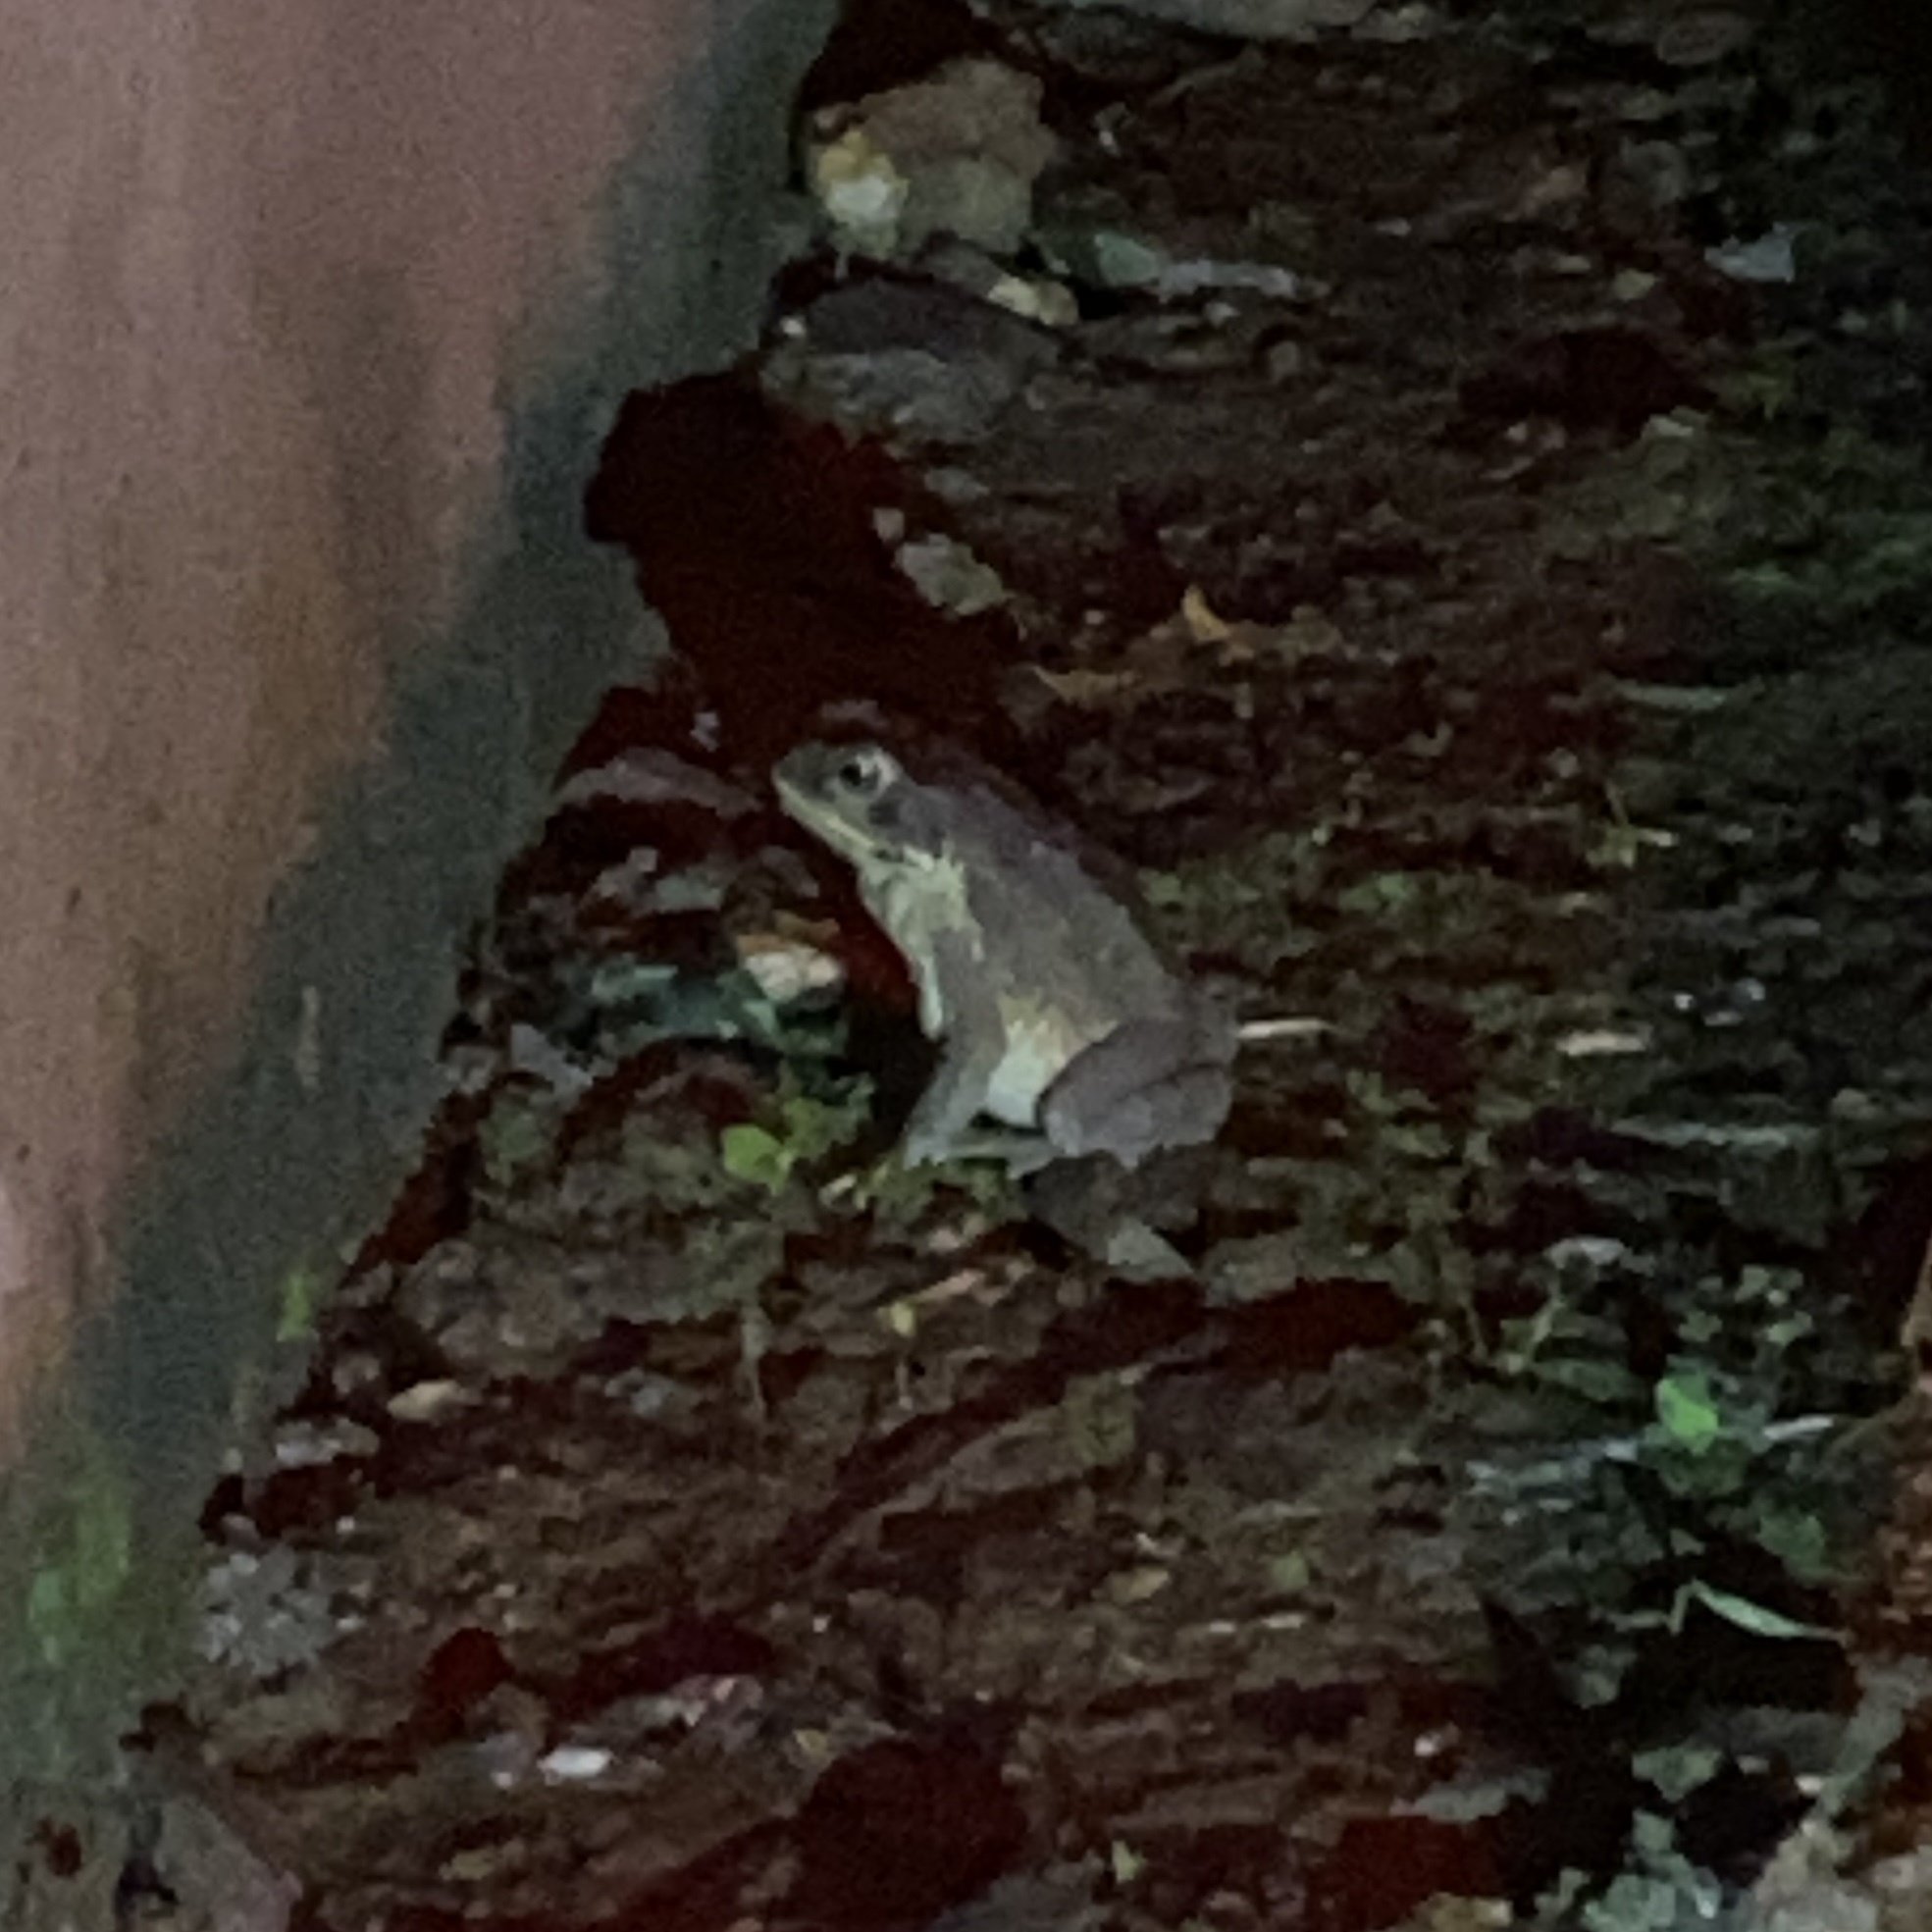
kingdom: Animalia
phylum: Chordata
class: Amphibia
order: Anura
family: Bufonidae
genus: Rhinella
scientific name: Rhinella marina
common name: Cane toad
